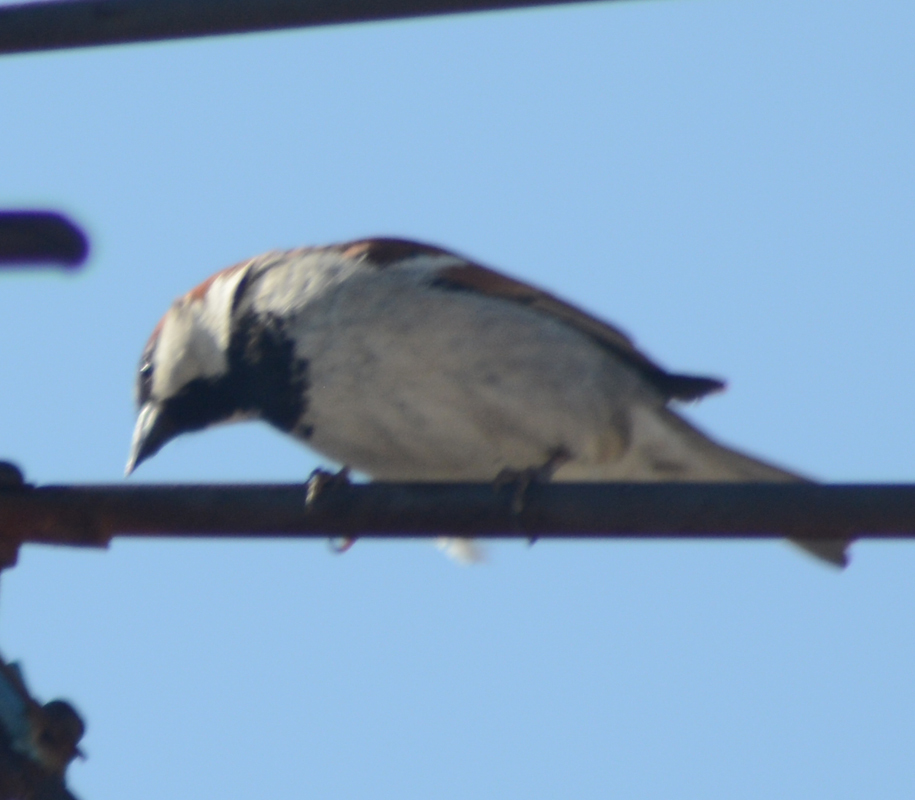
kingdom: Animalia
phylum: Chordata
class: Aves
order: Passeriformes
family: Passeridae
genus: Passer
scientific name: Passer domesticus
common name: House sparrow
